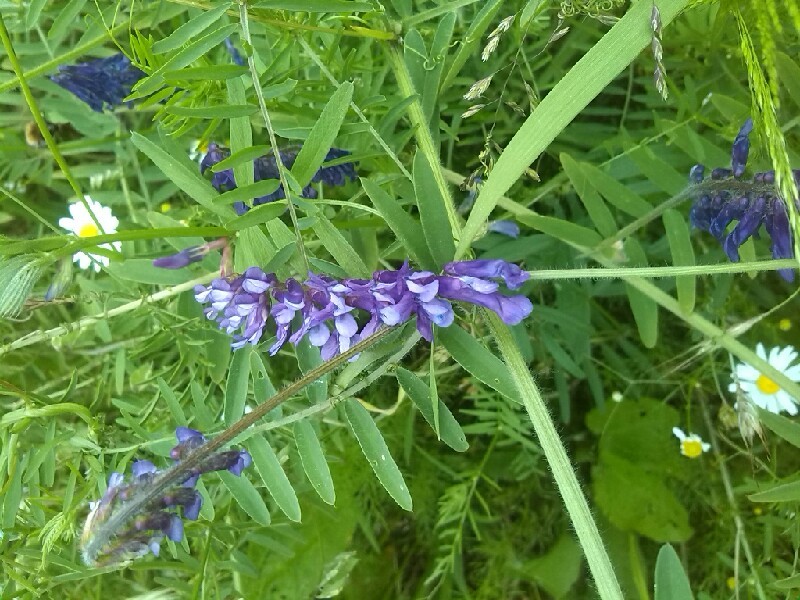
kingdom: Plantae
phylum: Tracheophyta
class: Magnoliopsida
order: Fabales
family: Fabaceae
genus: Vicia
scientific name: Vicia villosa
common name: Fodder vetch
